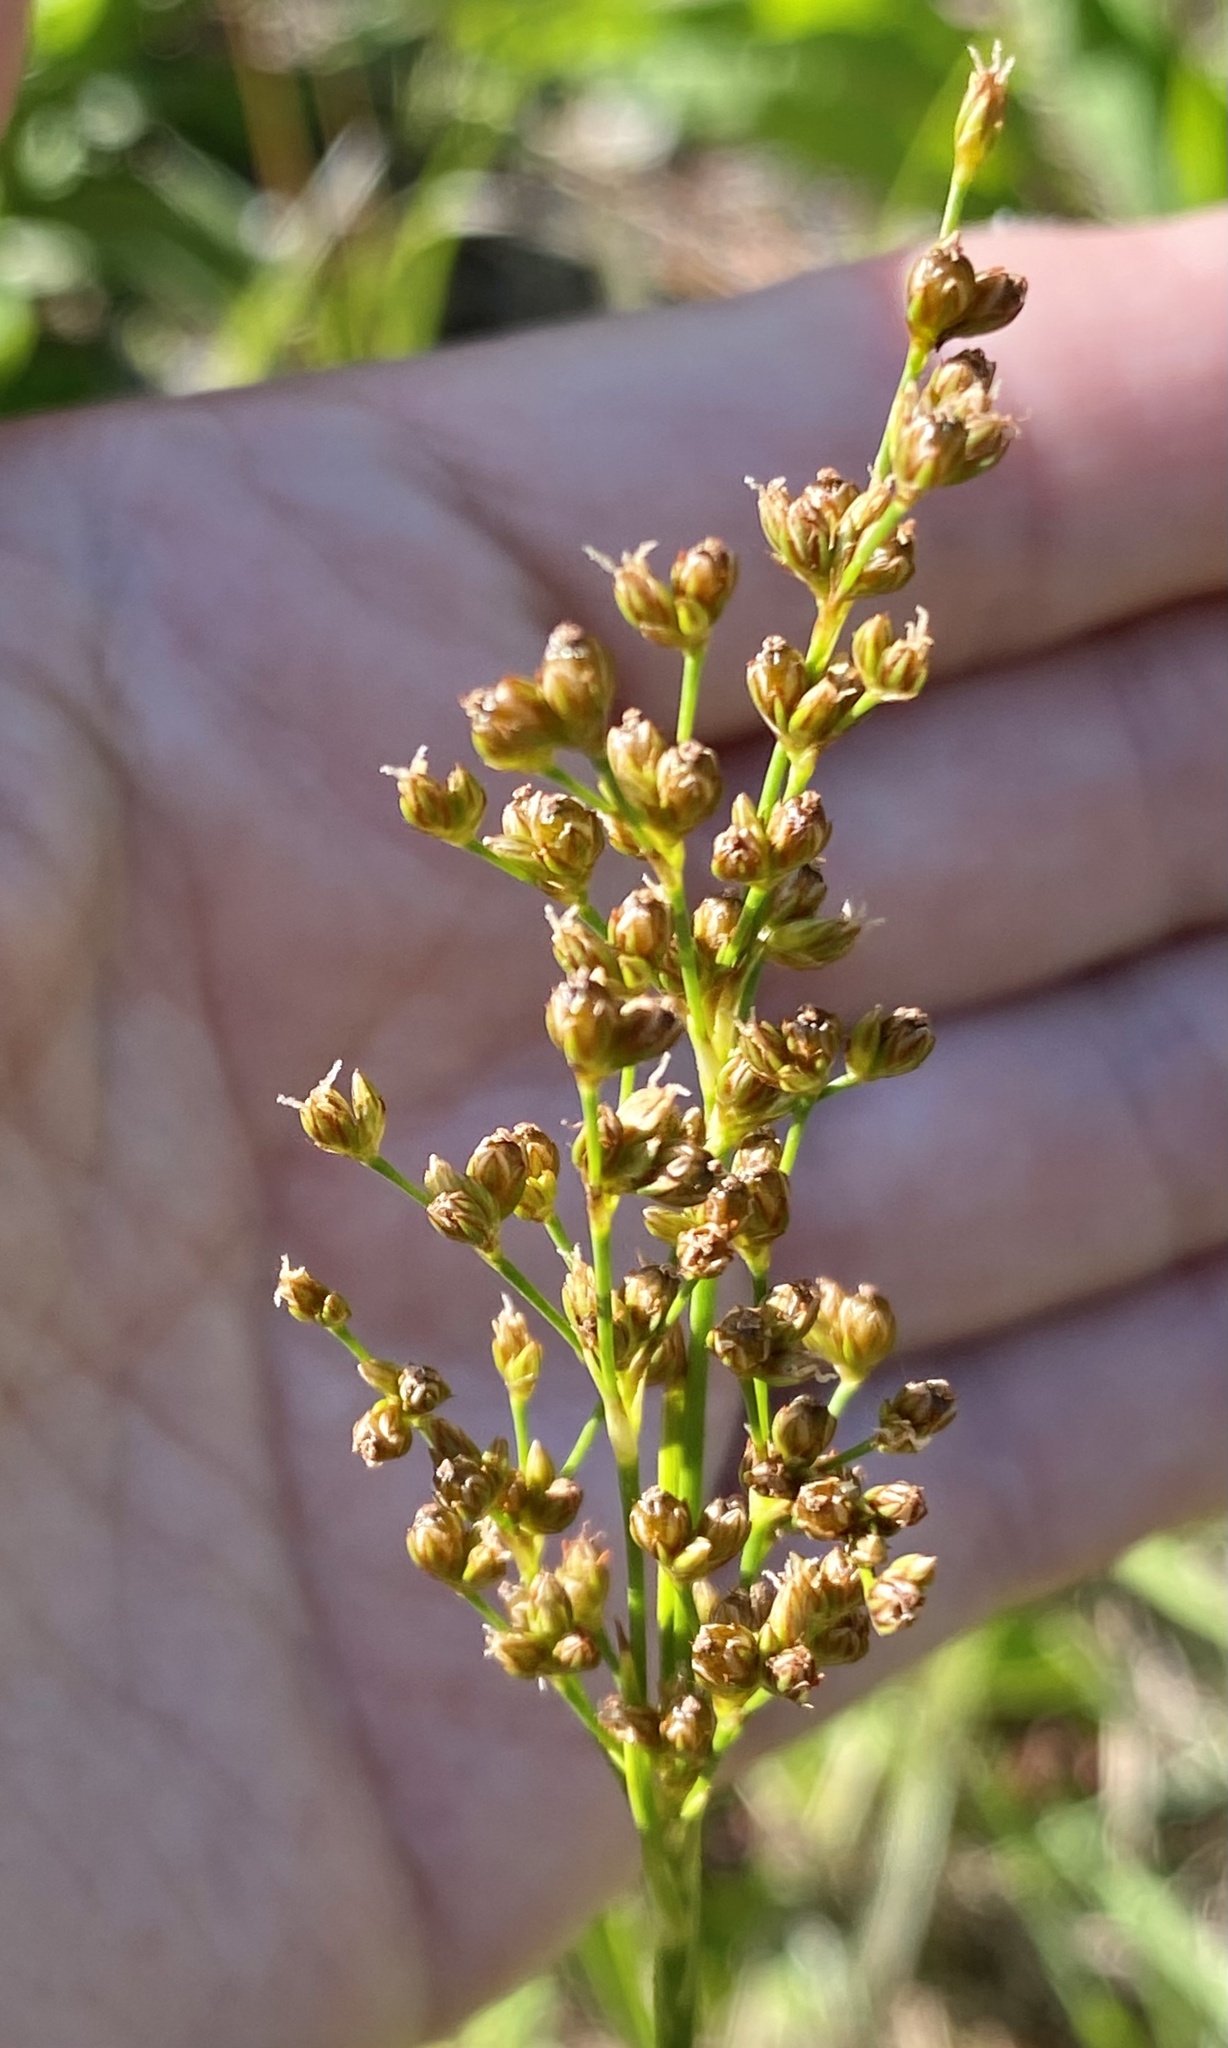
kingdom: Plantae
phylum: Tracheophyta
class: Liliopsida
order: Poales
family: Juncaceae
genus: Juncus
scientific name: Juncus marginatus
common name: Grass-leaf rush
